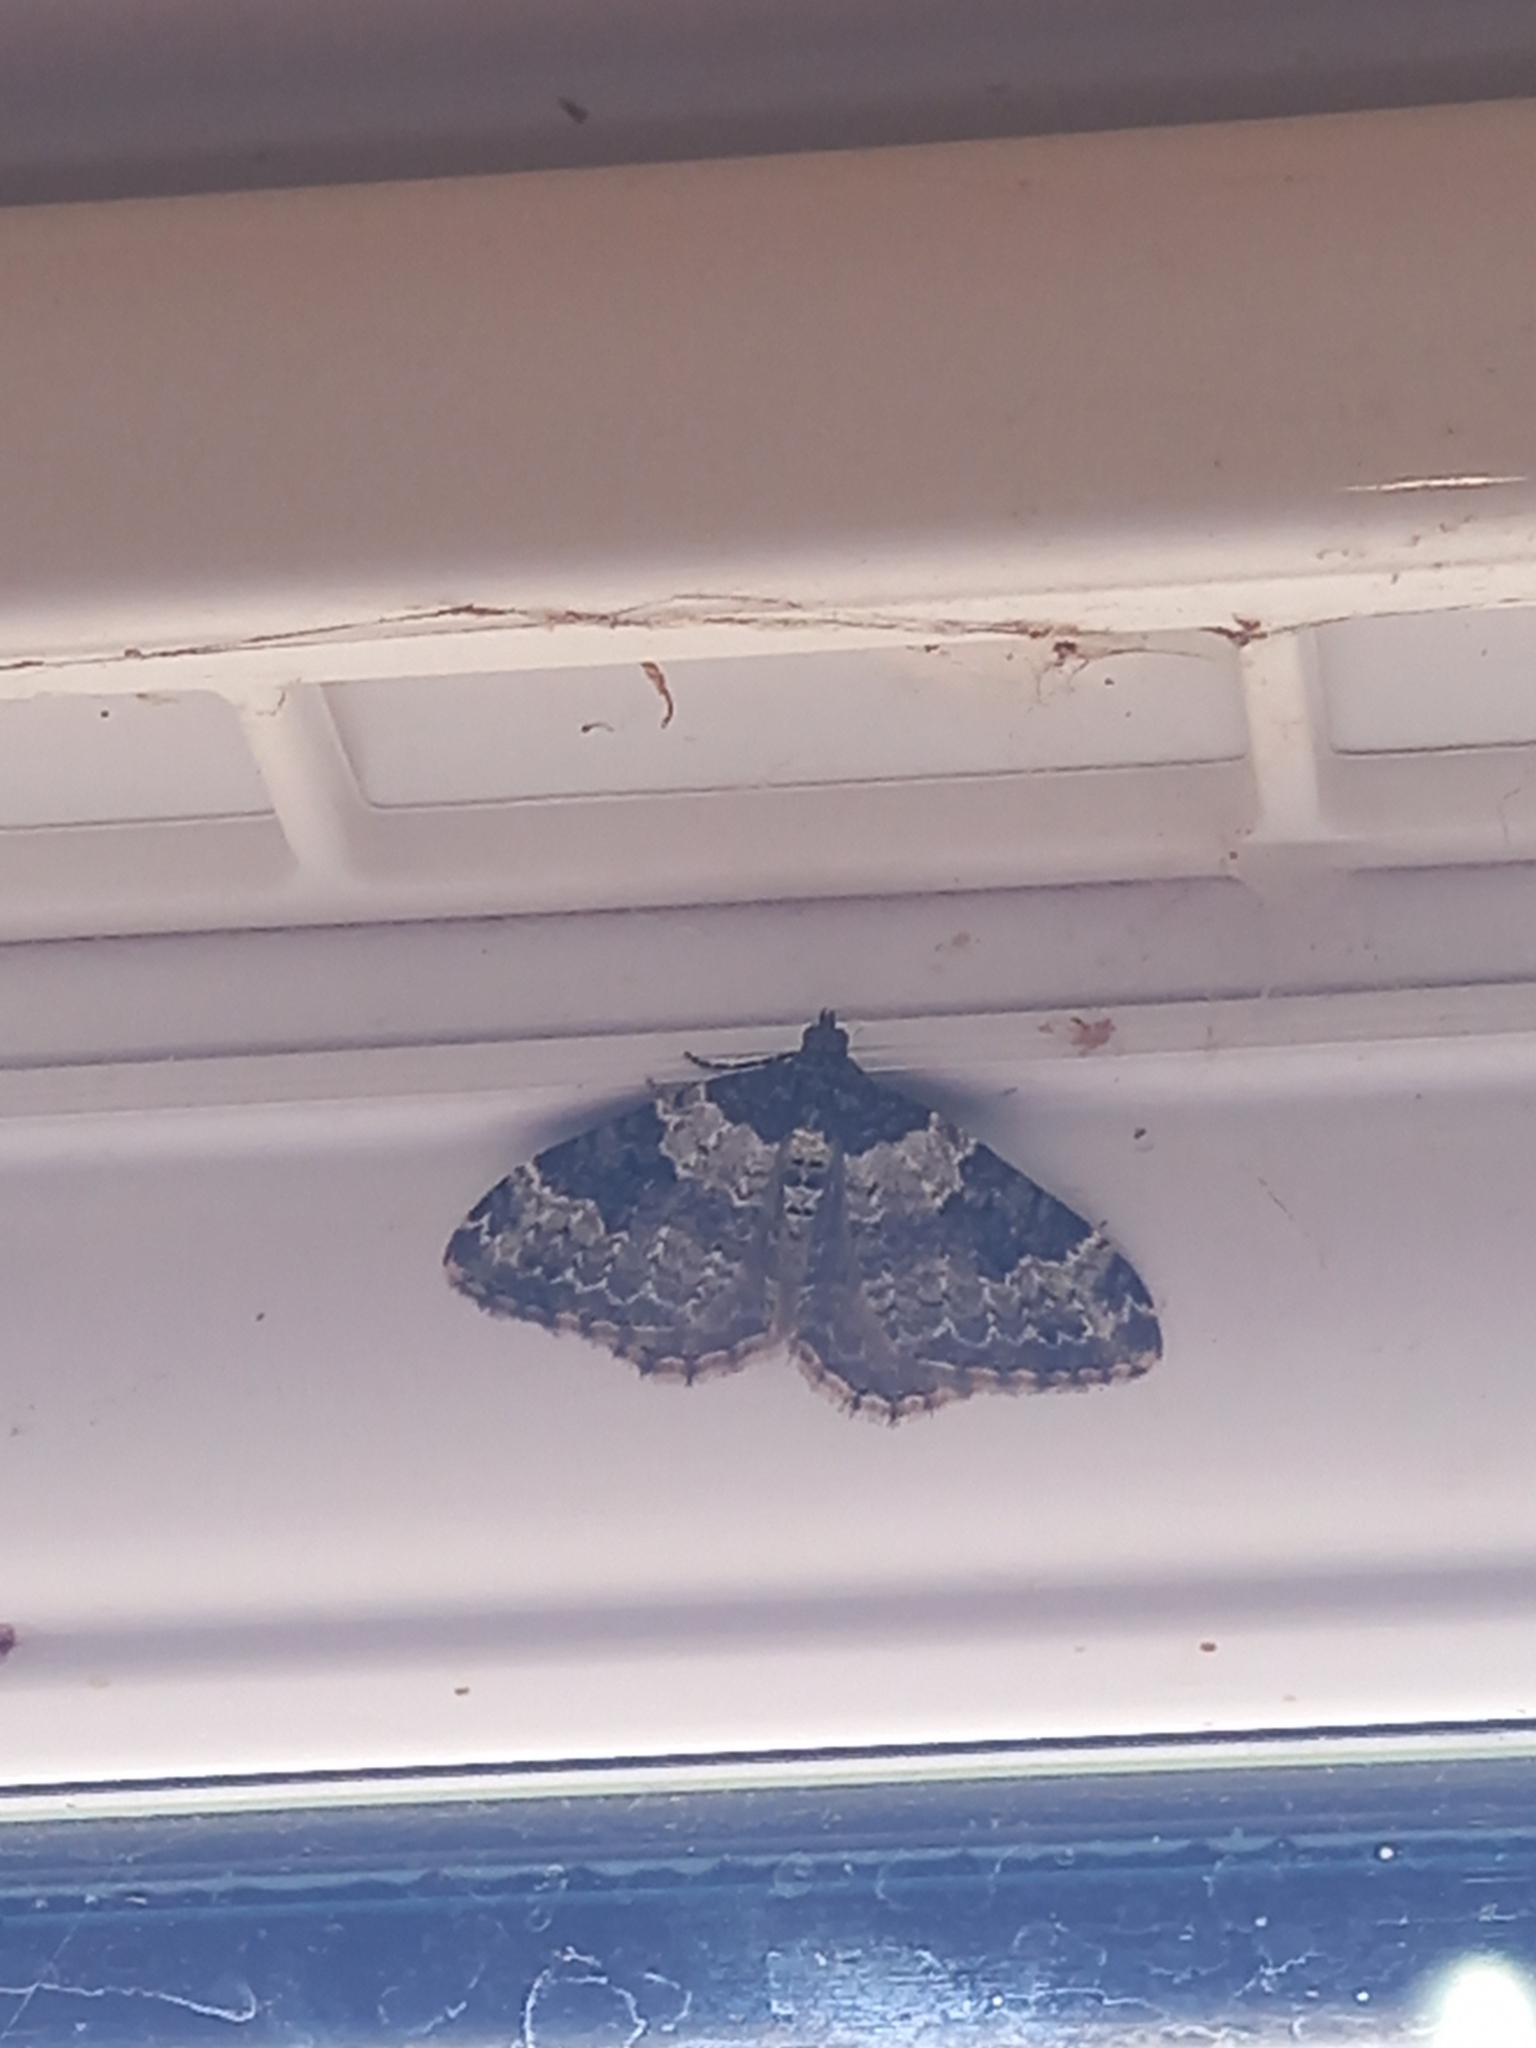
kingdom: Animalia
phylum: Arthropoda
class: Insecta
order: Lepidoptera
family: Geometridae
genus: Xanthorhoe
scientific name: Xanthorhoe fluctuata
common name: Garden carpet
